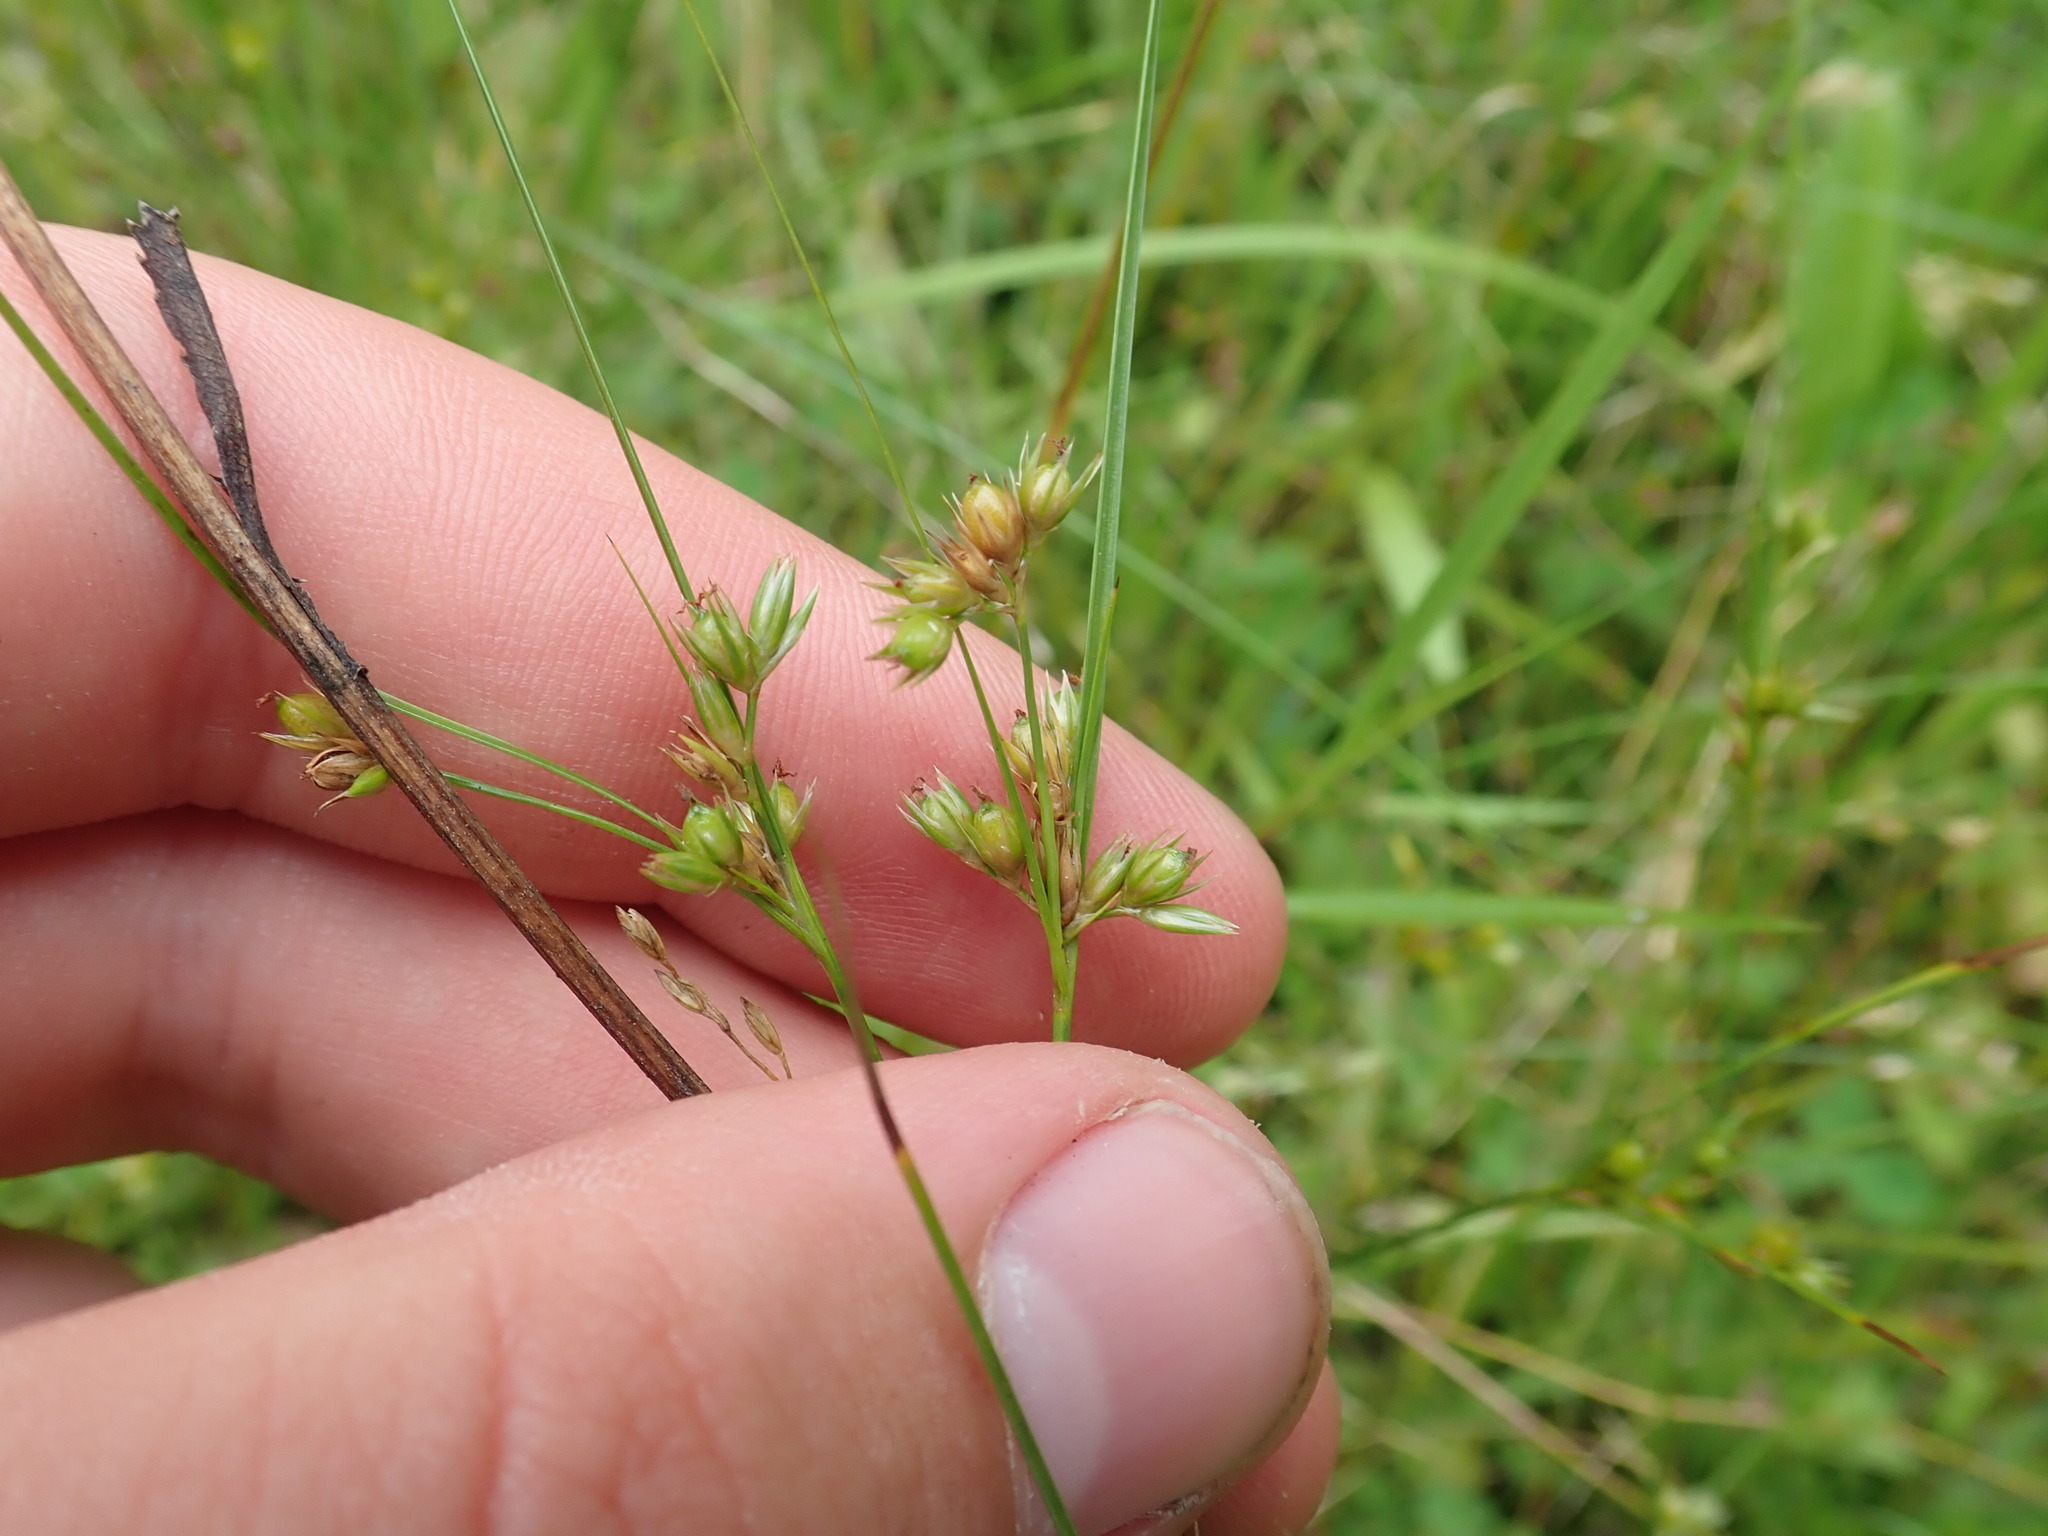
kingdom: Plantae
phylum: Tracheophyta
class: Liliopsida
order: Poales
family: Juncaceae
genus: Juncus
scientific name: Juncus tenuis
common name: Slender rush
